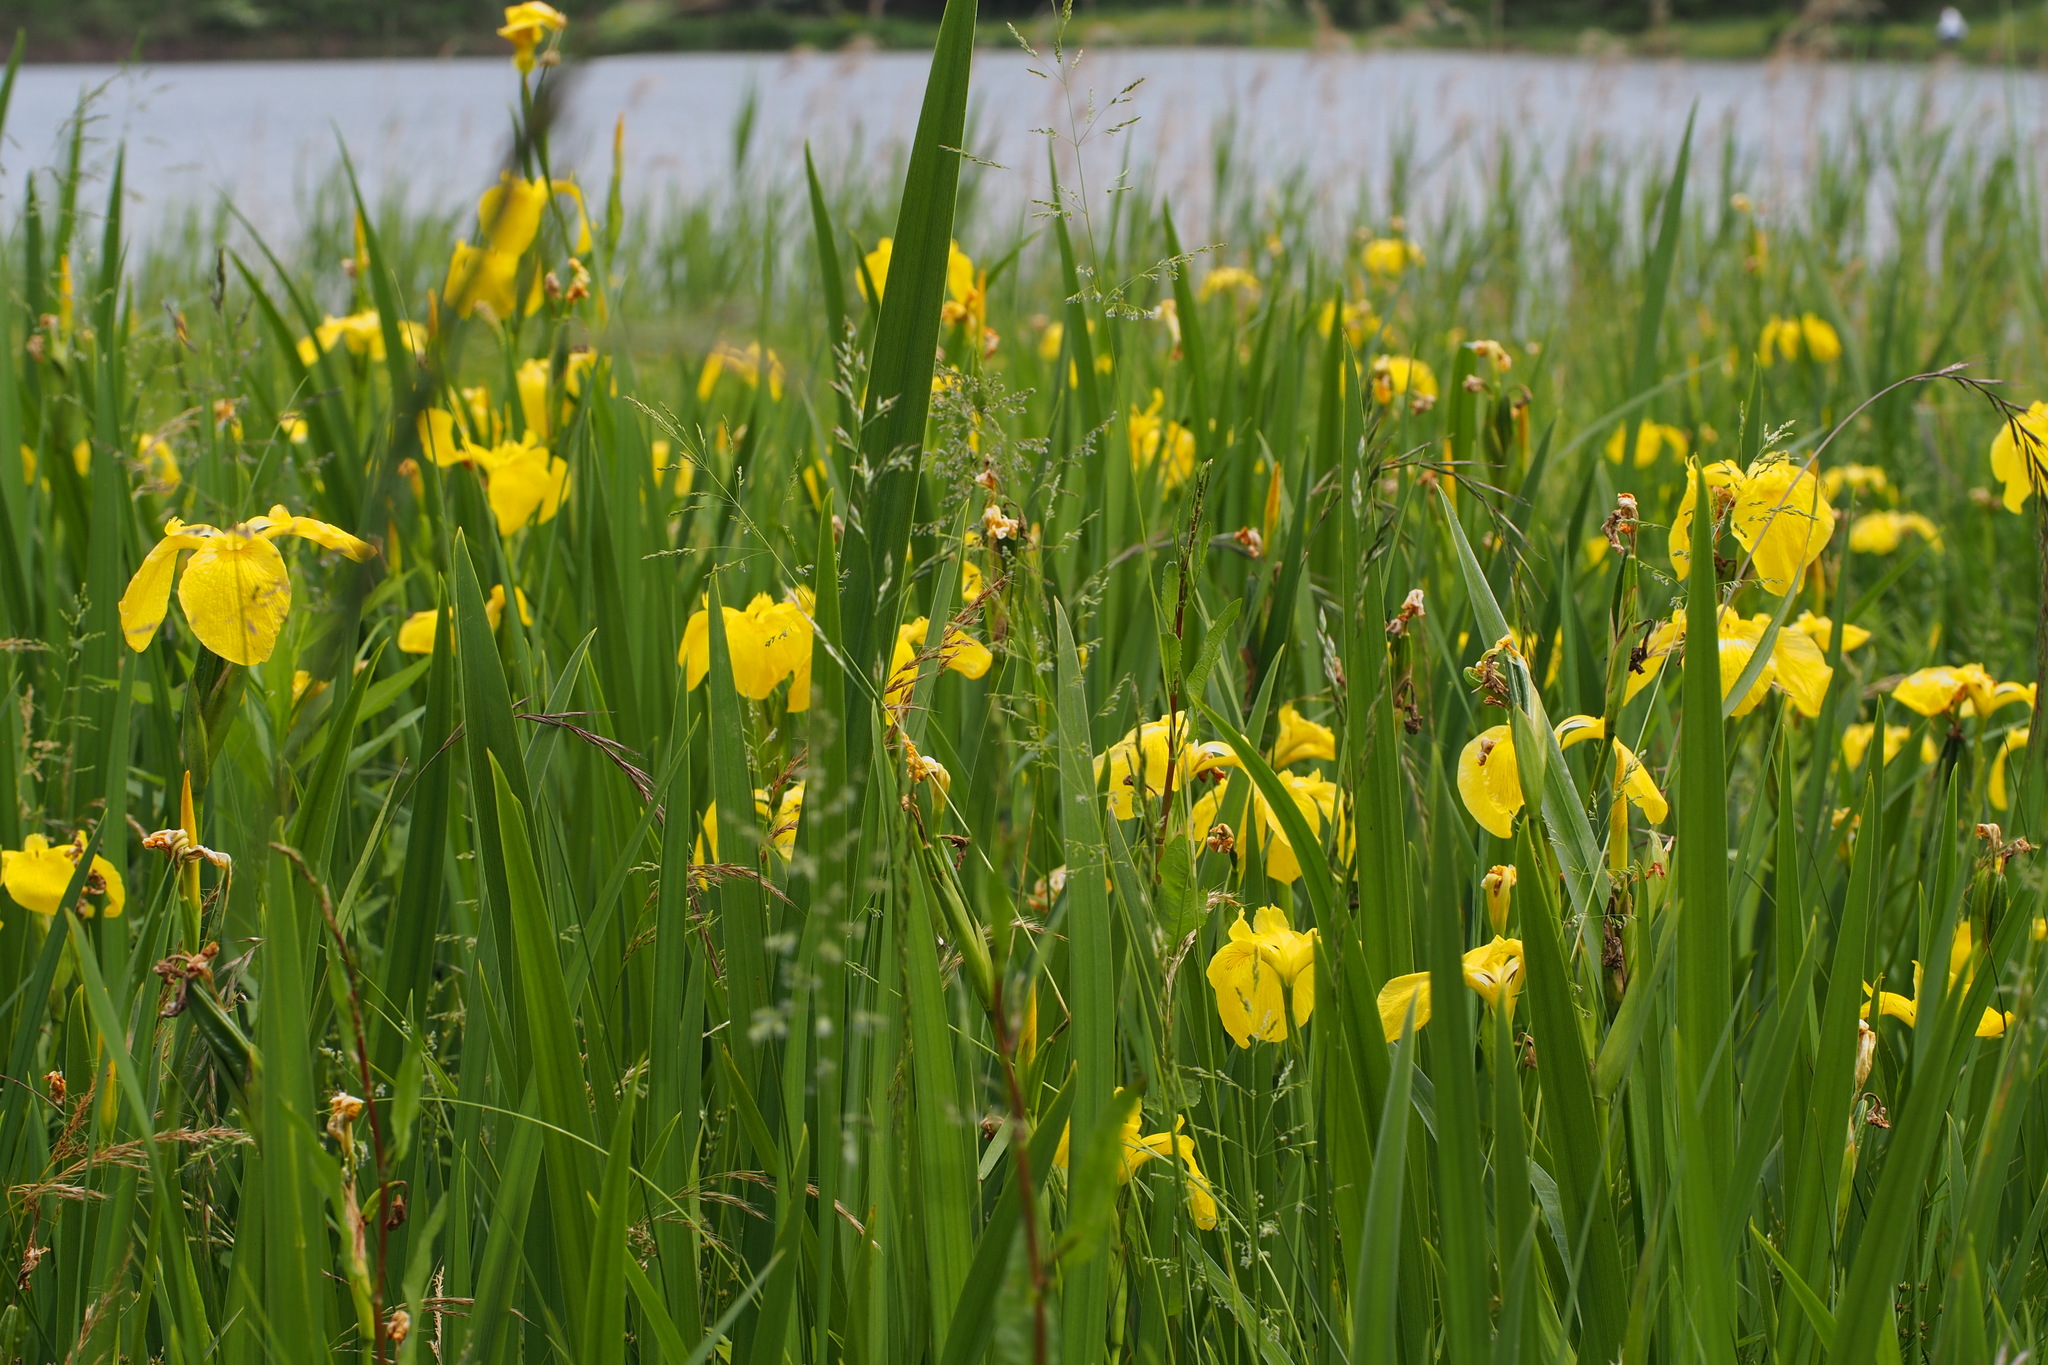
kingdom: Plantae
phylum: Tracheophyta
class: Liliopsida
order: Asparagales
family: Iridaceae
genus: Iris
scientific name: Iris pseudacorus
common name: Yellow flag
